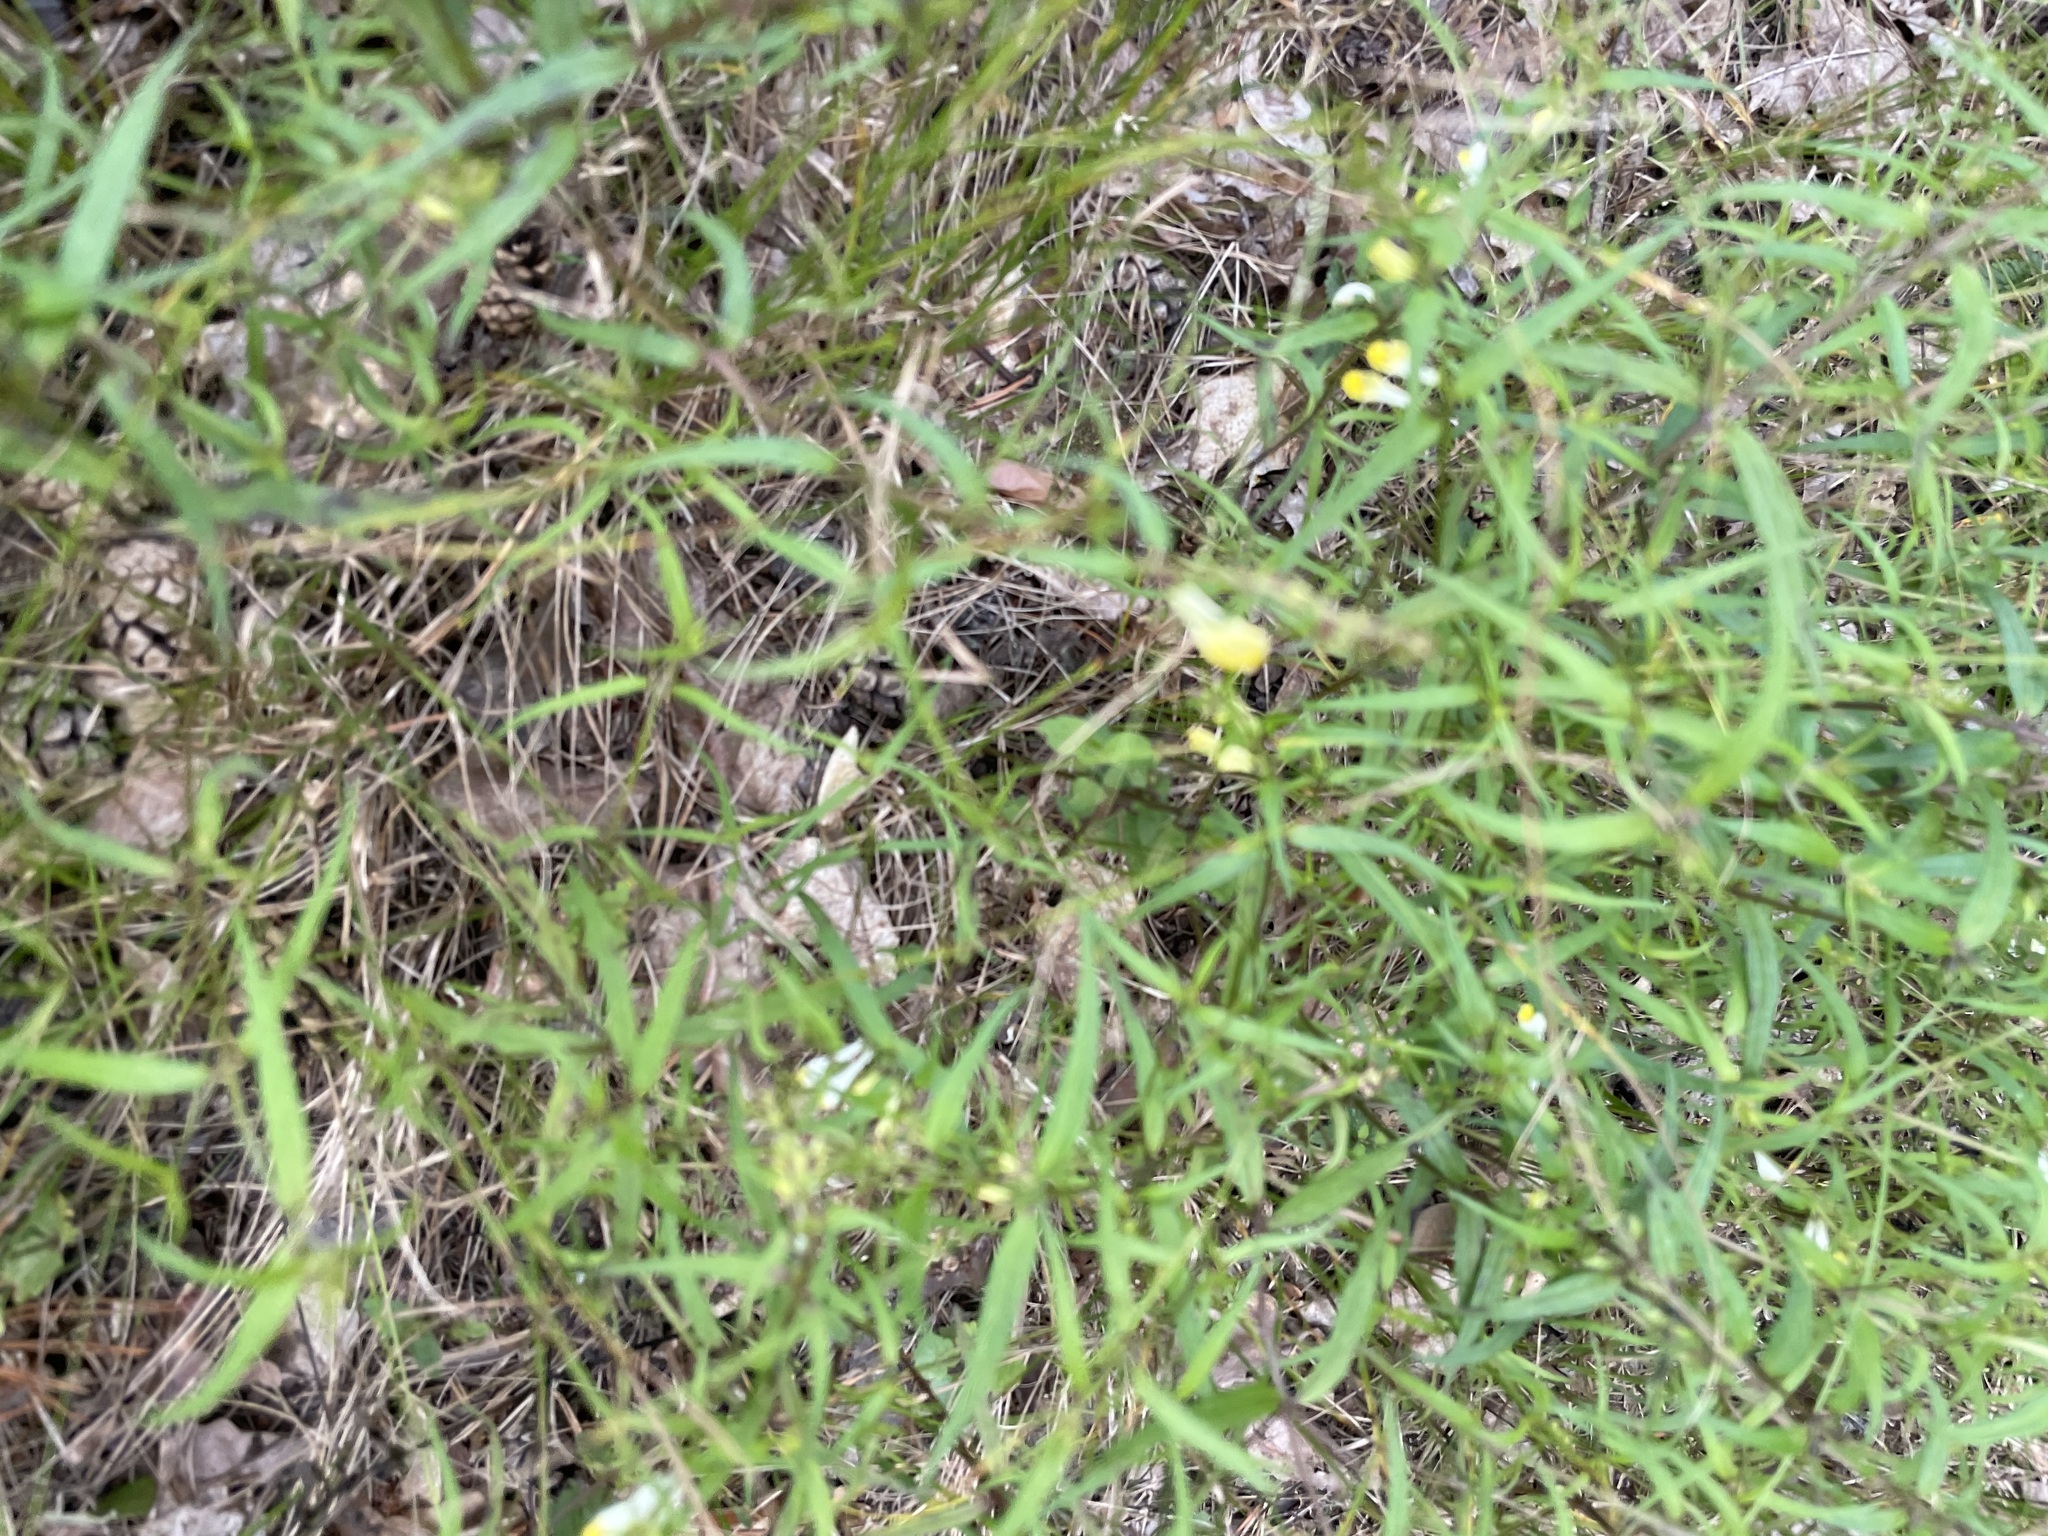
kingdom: Plantae
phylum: Tracheophyta
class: Magnoliopsida
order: Lamiales
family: Orobanchaceae
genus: Melampyrum
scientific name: Melampyrum pratense
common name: Common cow-wheat
